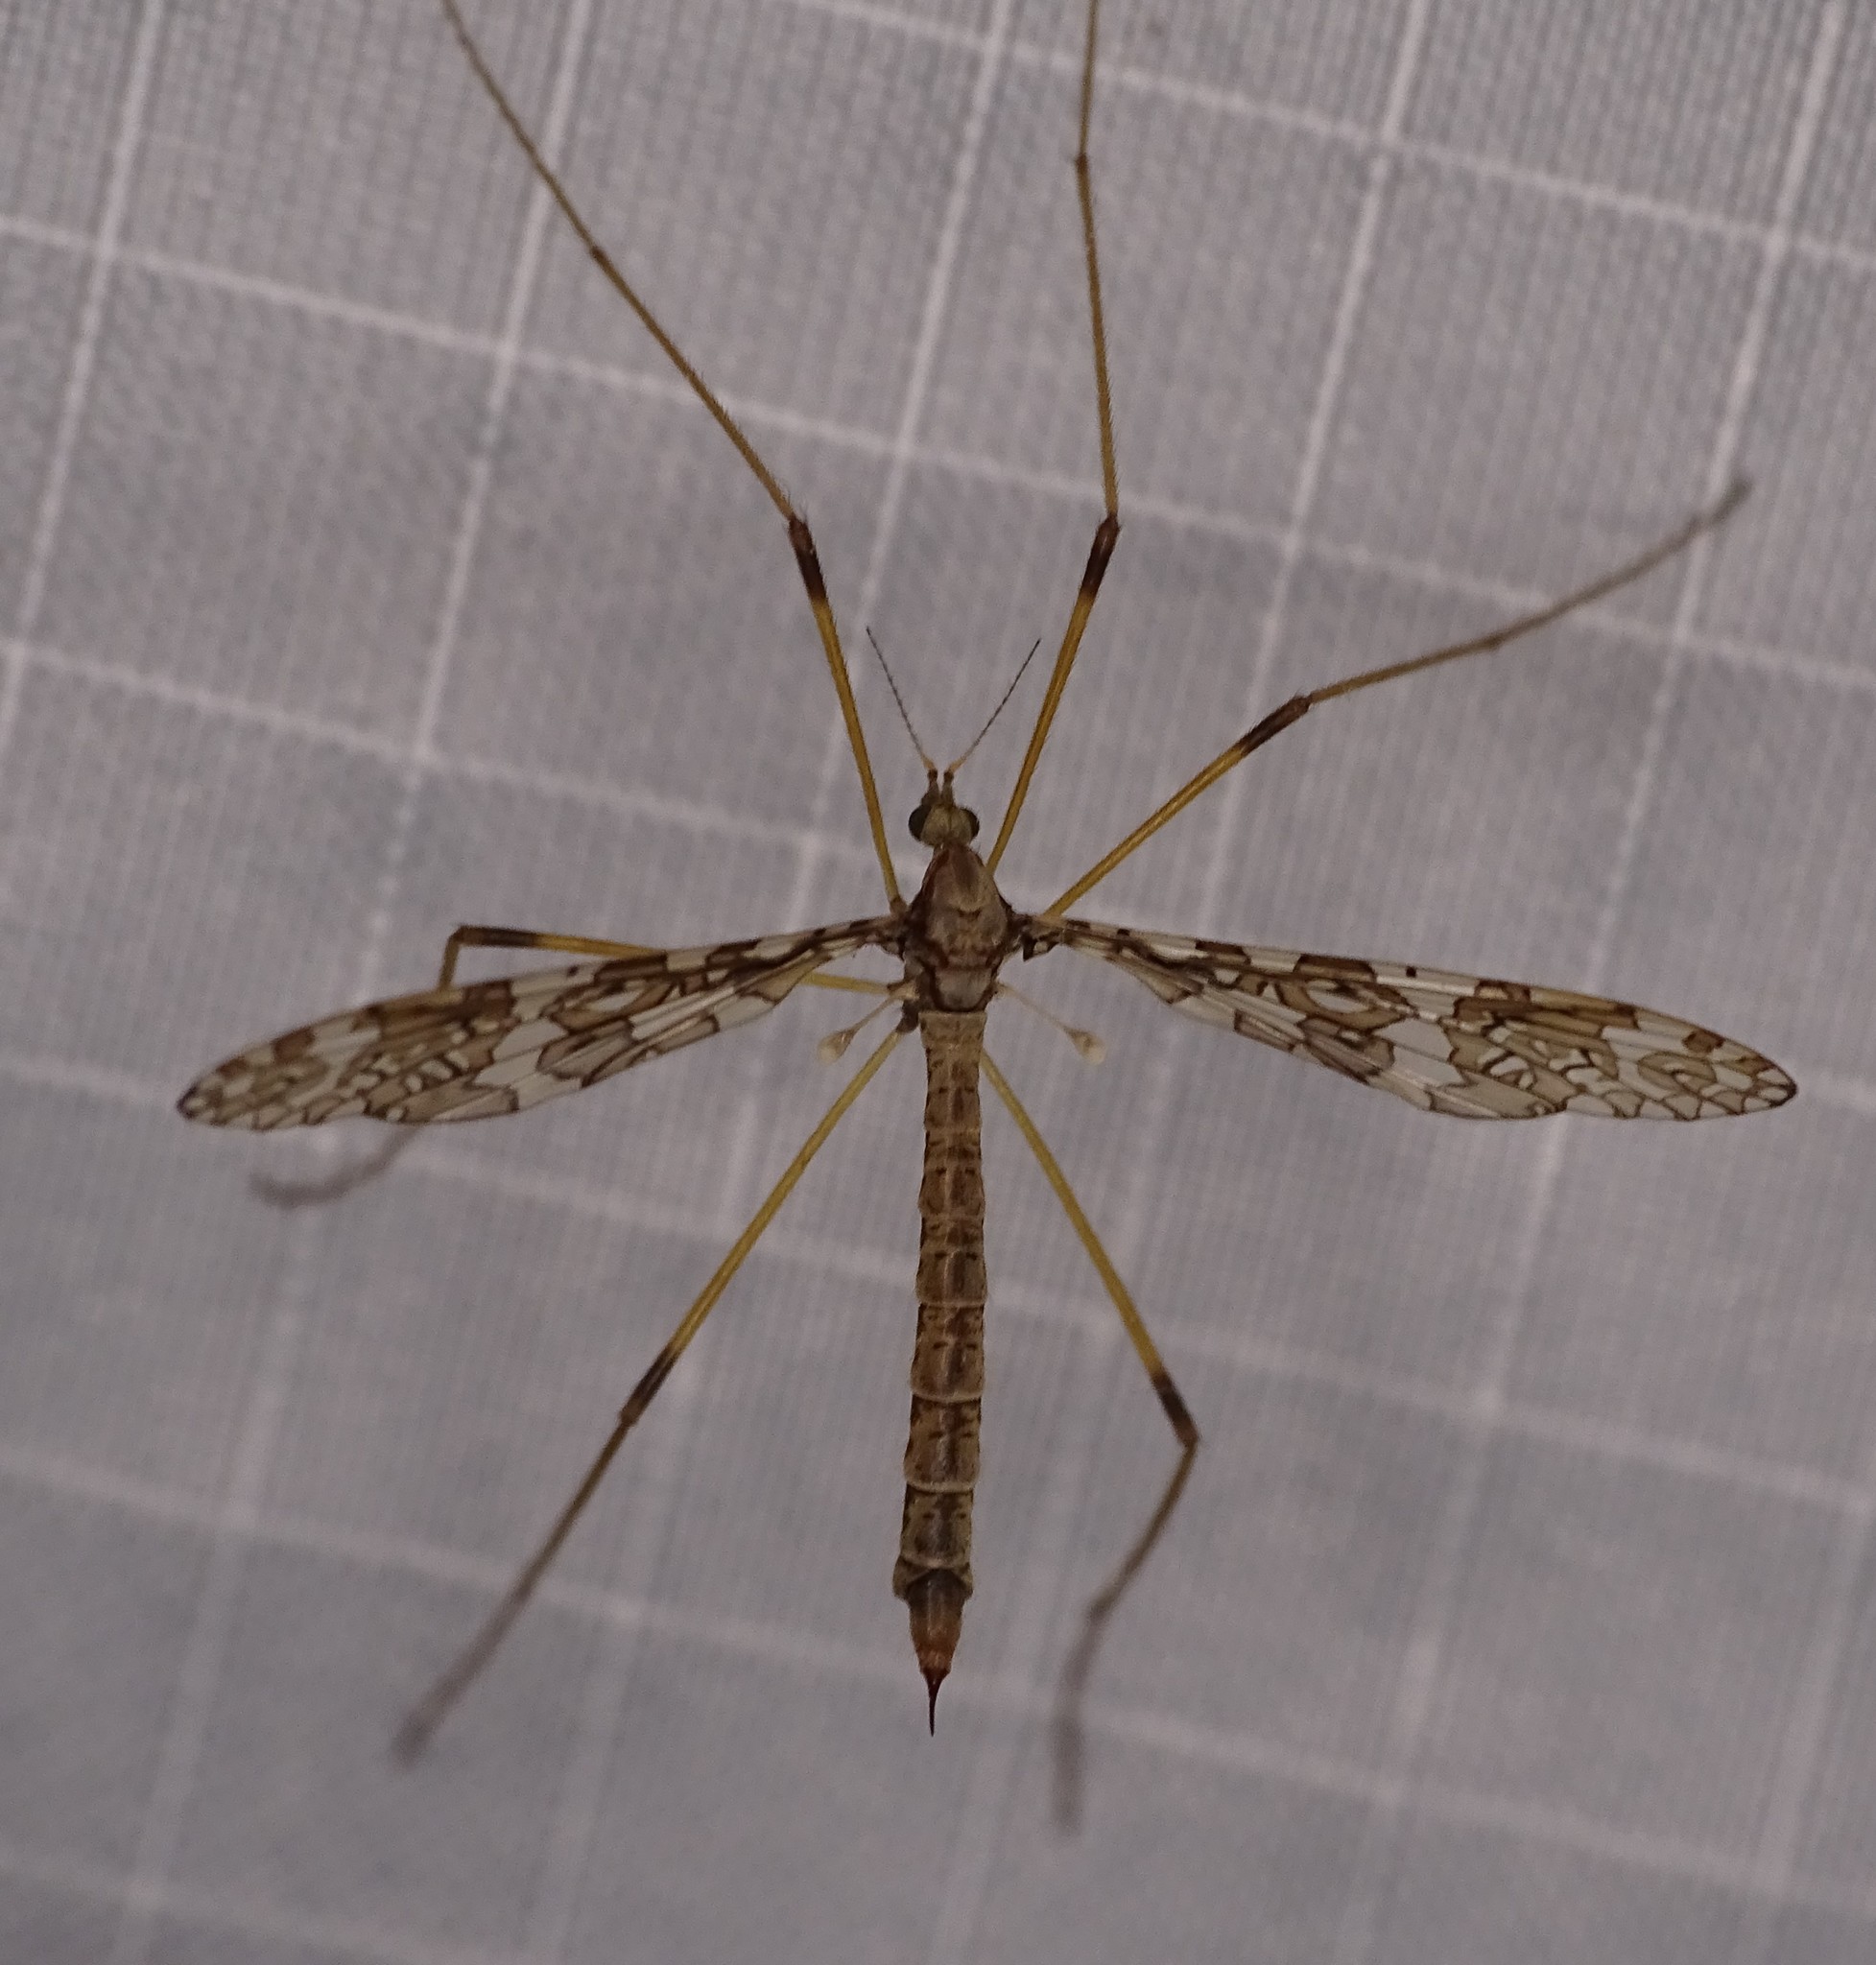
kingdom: Animalia
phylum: Arthropoda
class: Insecta
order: Diptera
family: Limoniidae
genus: Epiphragma
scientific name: Epiphragma fasciapenne
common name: Band-winged crane fly
